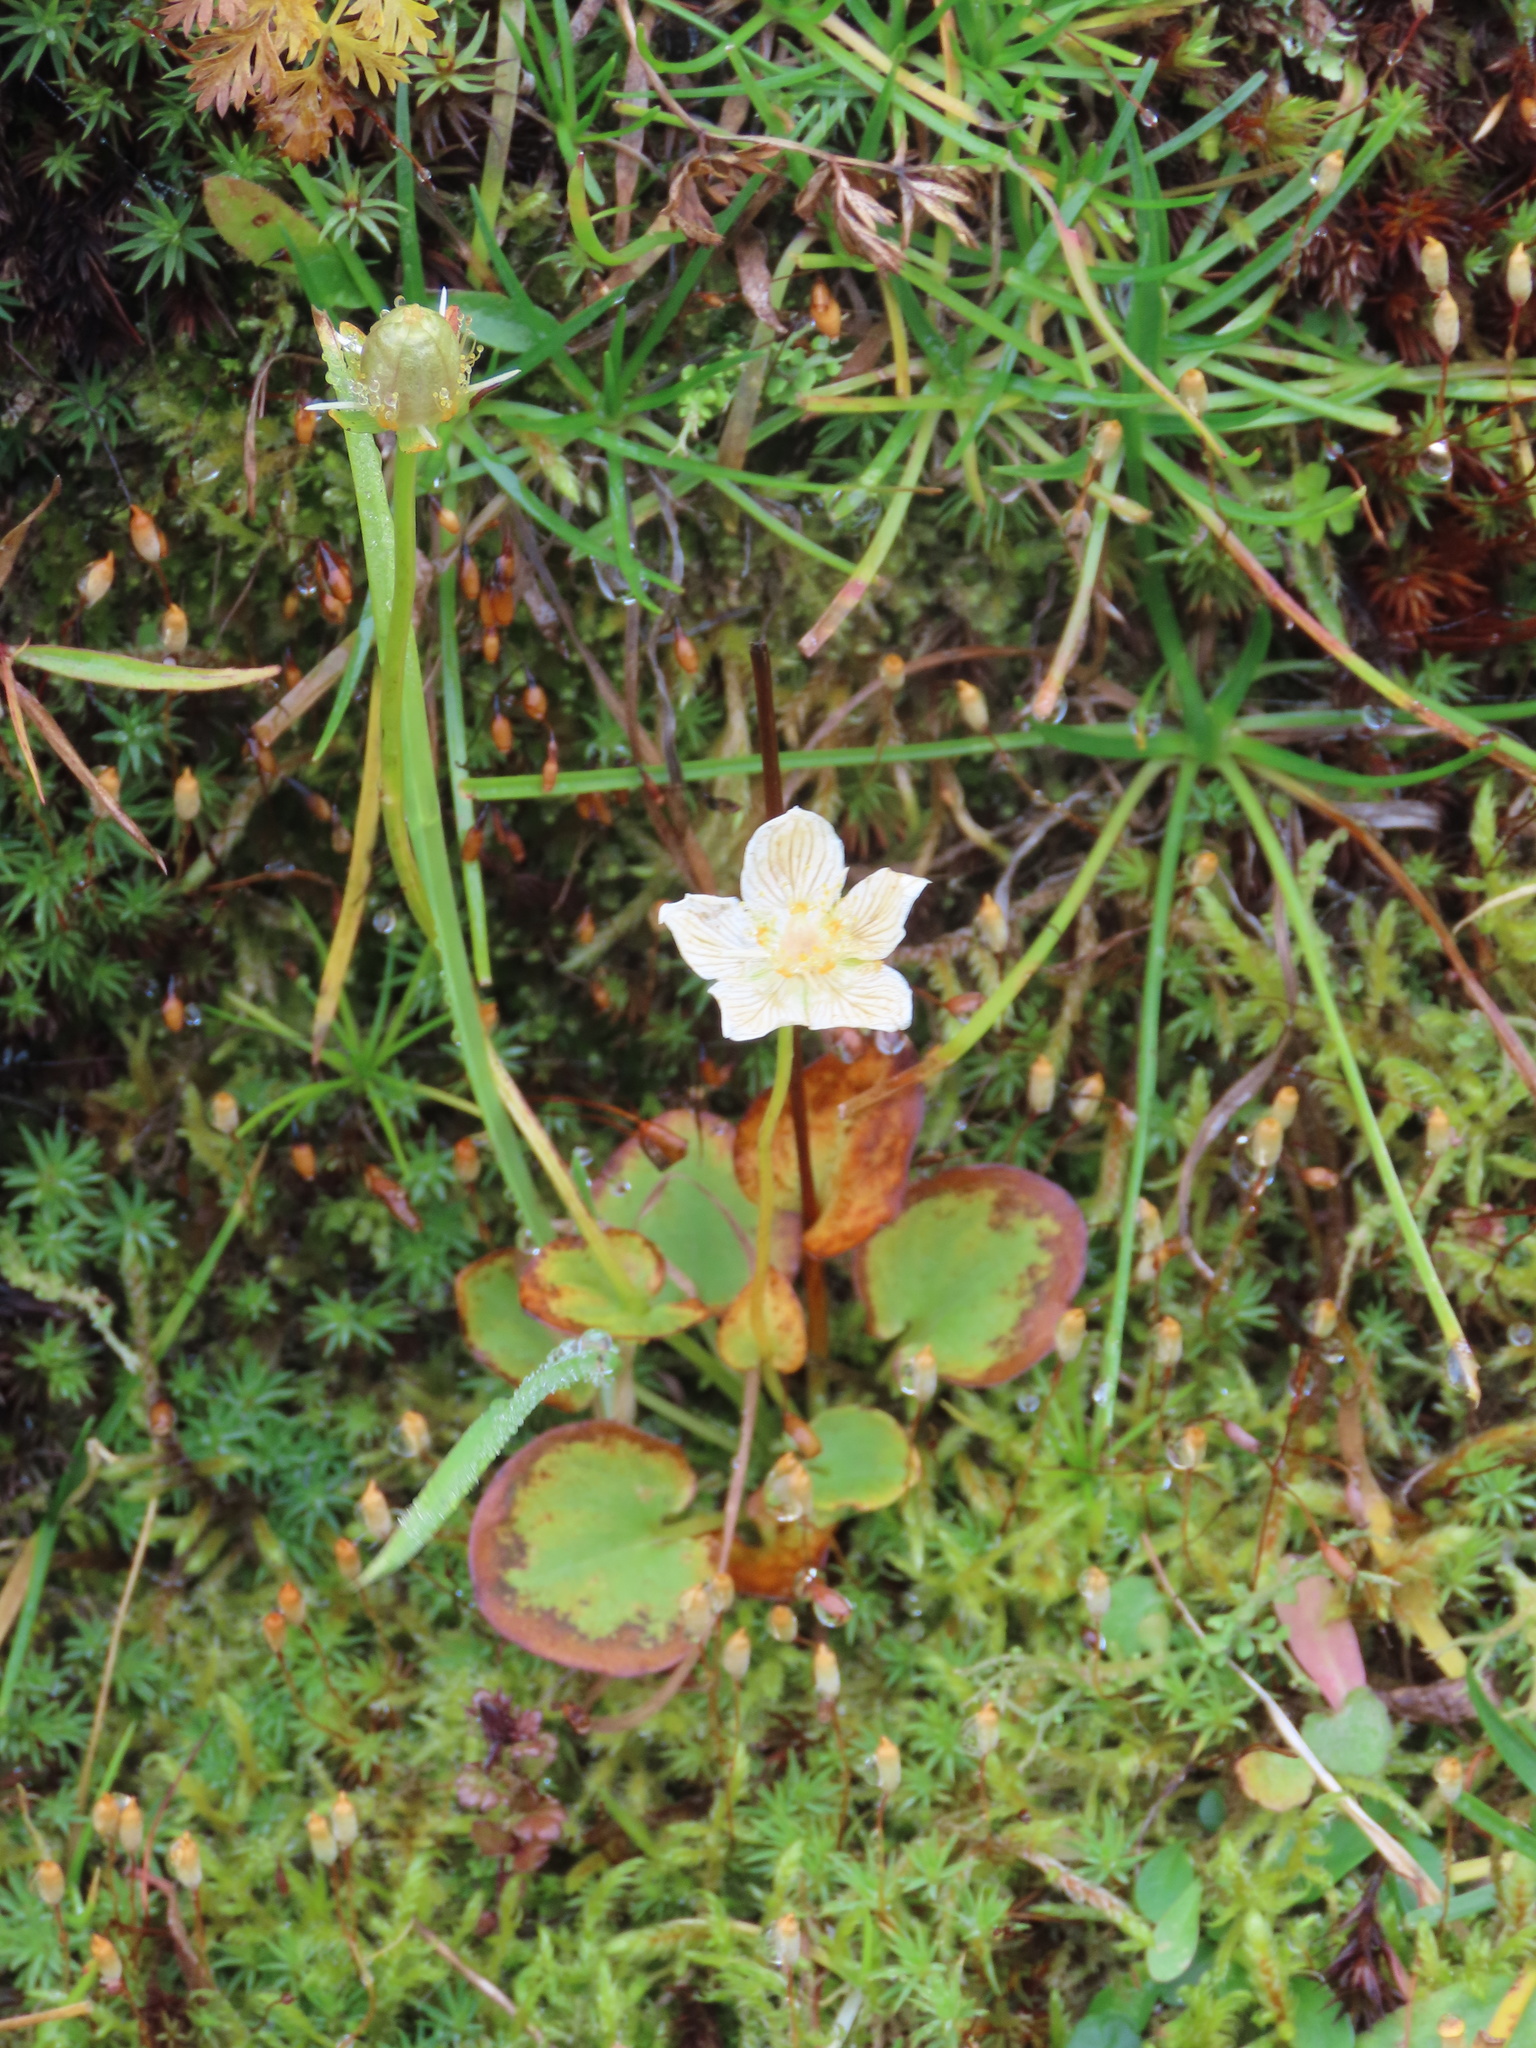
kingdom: Plantae
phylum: Tracheophyta
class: Magnoliopsida
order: Celastrales
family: Parnassiaceae
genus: Parnassia
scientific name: Parnassia palustris
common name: Grass-of-parnassus
